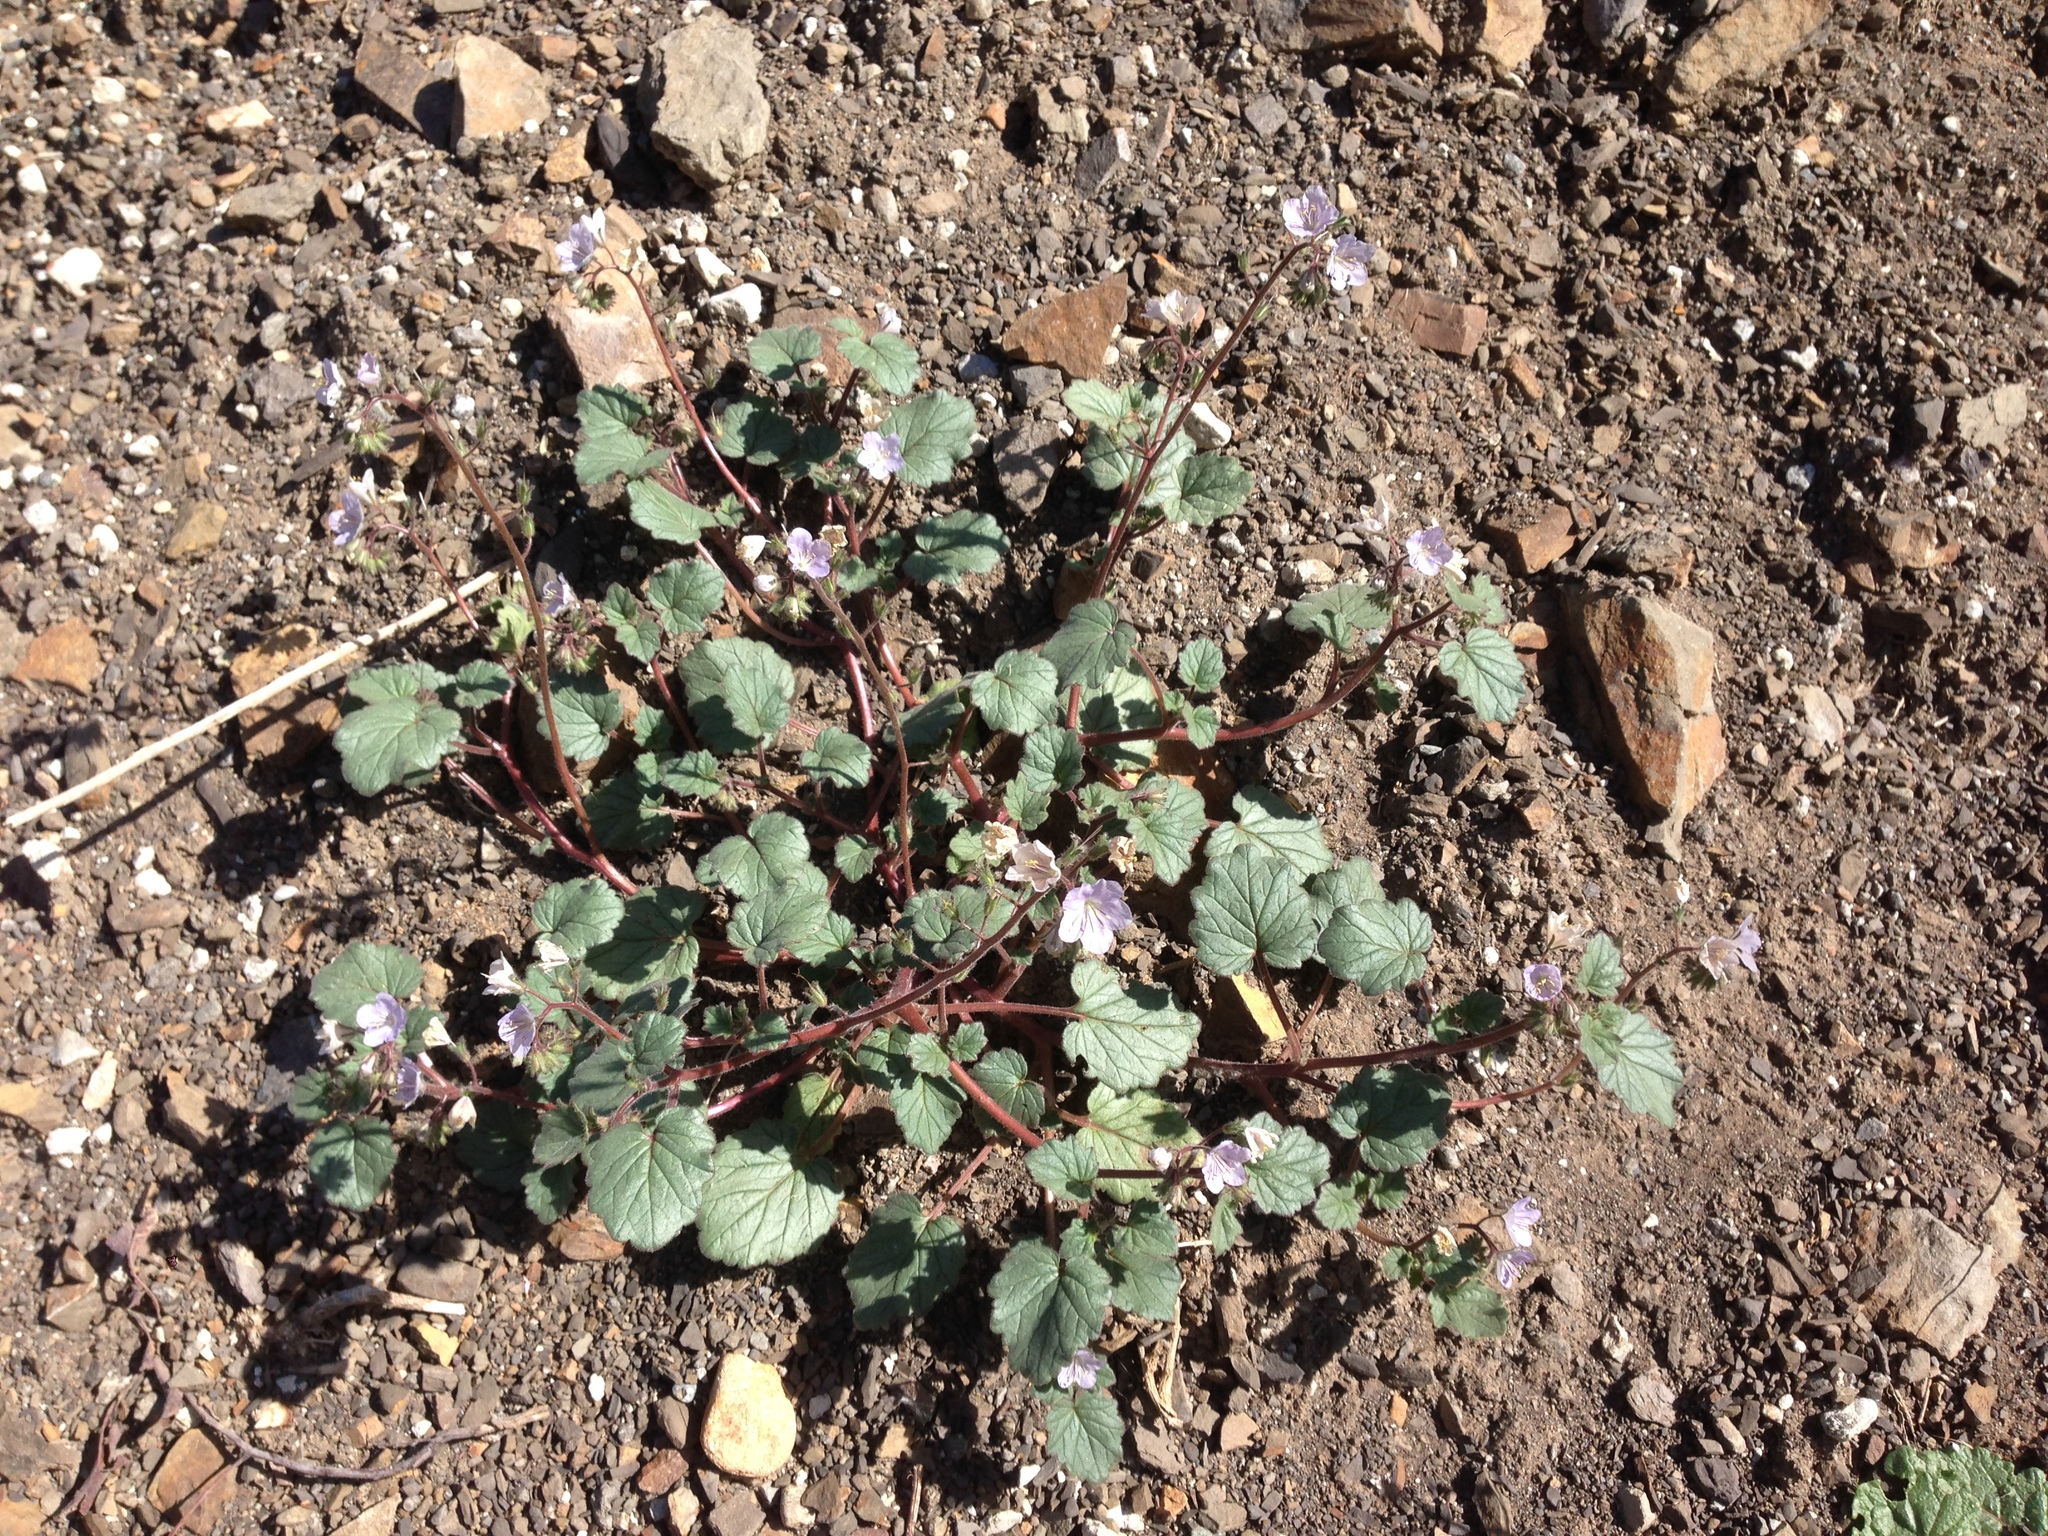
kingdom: Plantae
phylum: Tracheophyta
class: Magnoliopsida
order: Boraginales
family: Hydrophyllaceae
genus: Phacelia
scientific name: Phacelia longipes
